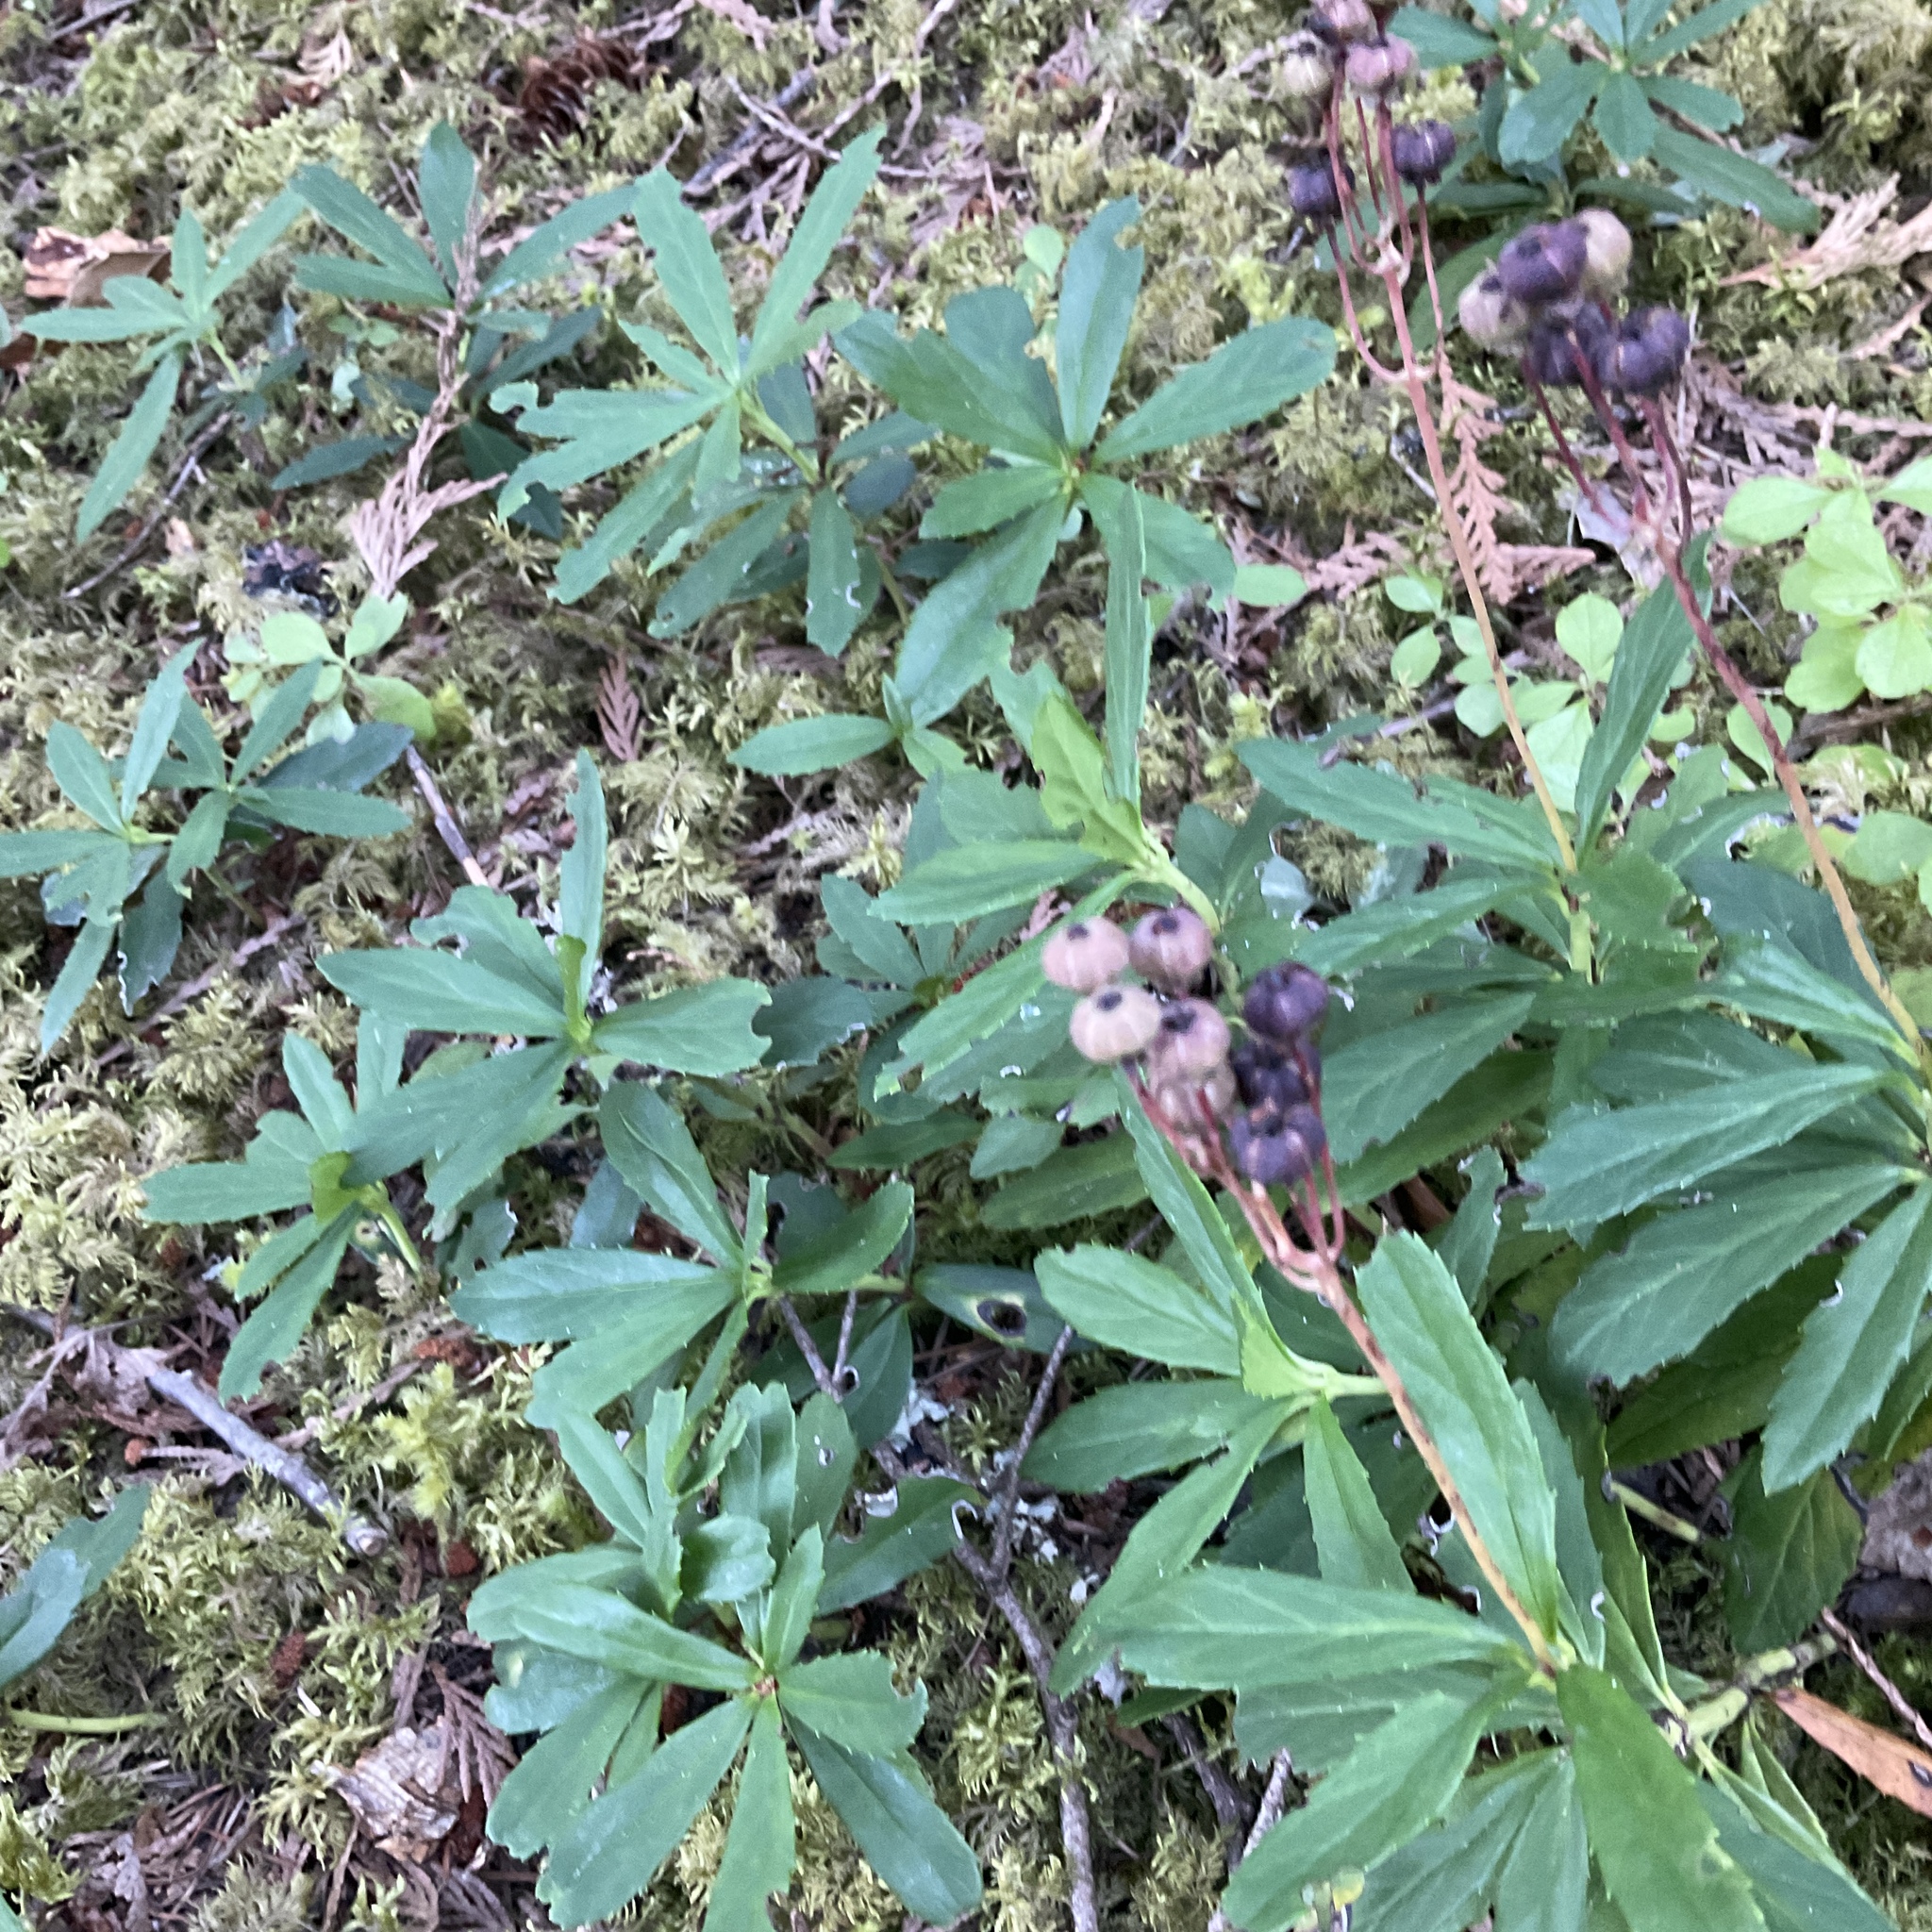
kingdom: Plantae
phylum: Tracheophyta
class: Magnoliopsida
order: Ericales
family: Ericaceae
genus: Chimaphila
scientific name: Chimaphila umbellata
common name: Pipsissewa
